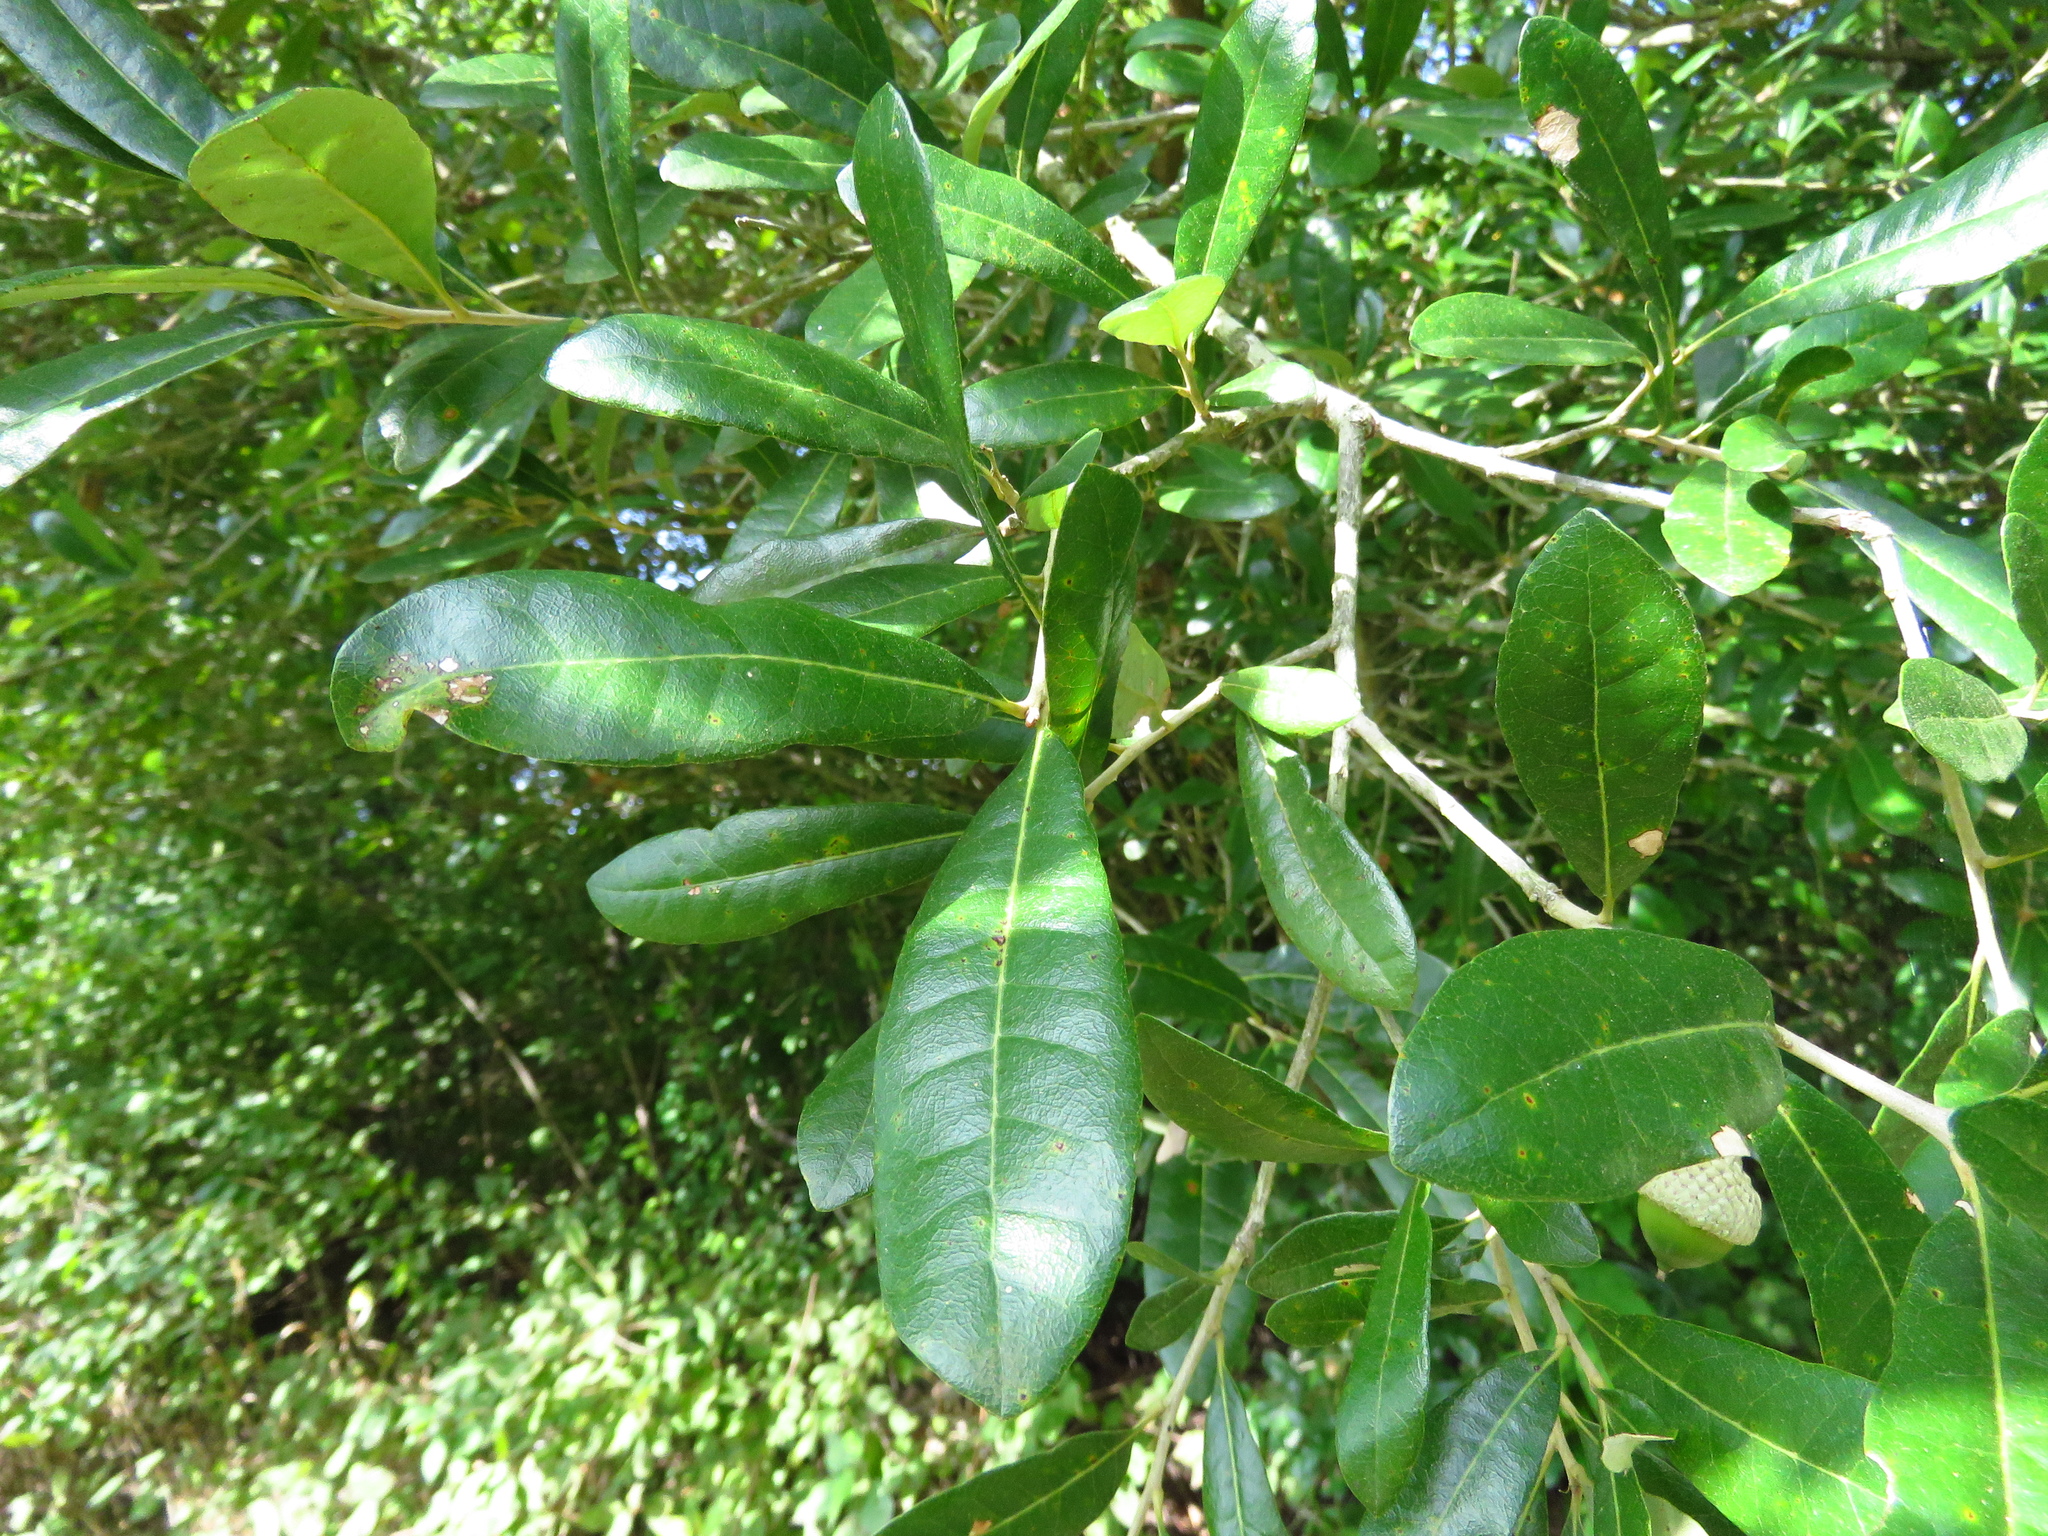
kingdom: Plantae
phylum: Tracheophyta
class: Magnoliopsida
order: Fagales
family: Fagaceae
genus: Quercus
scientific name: Quercus virginiana
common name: Southern live oak
